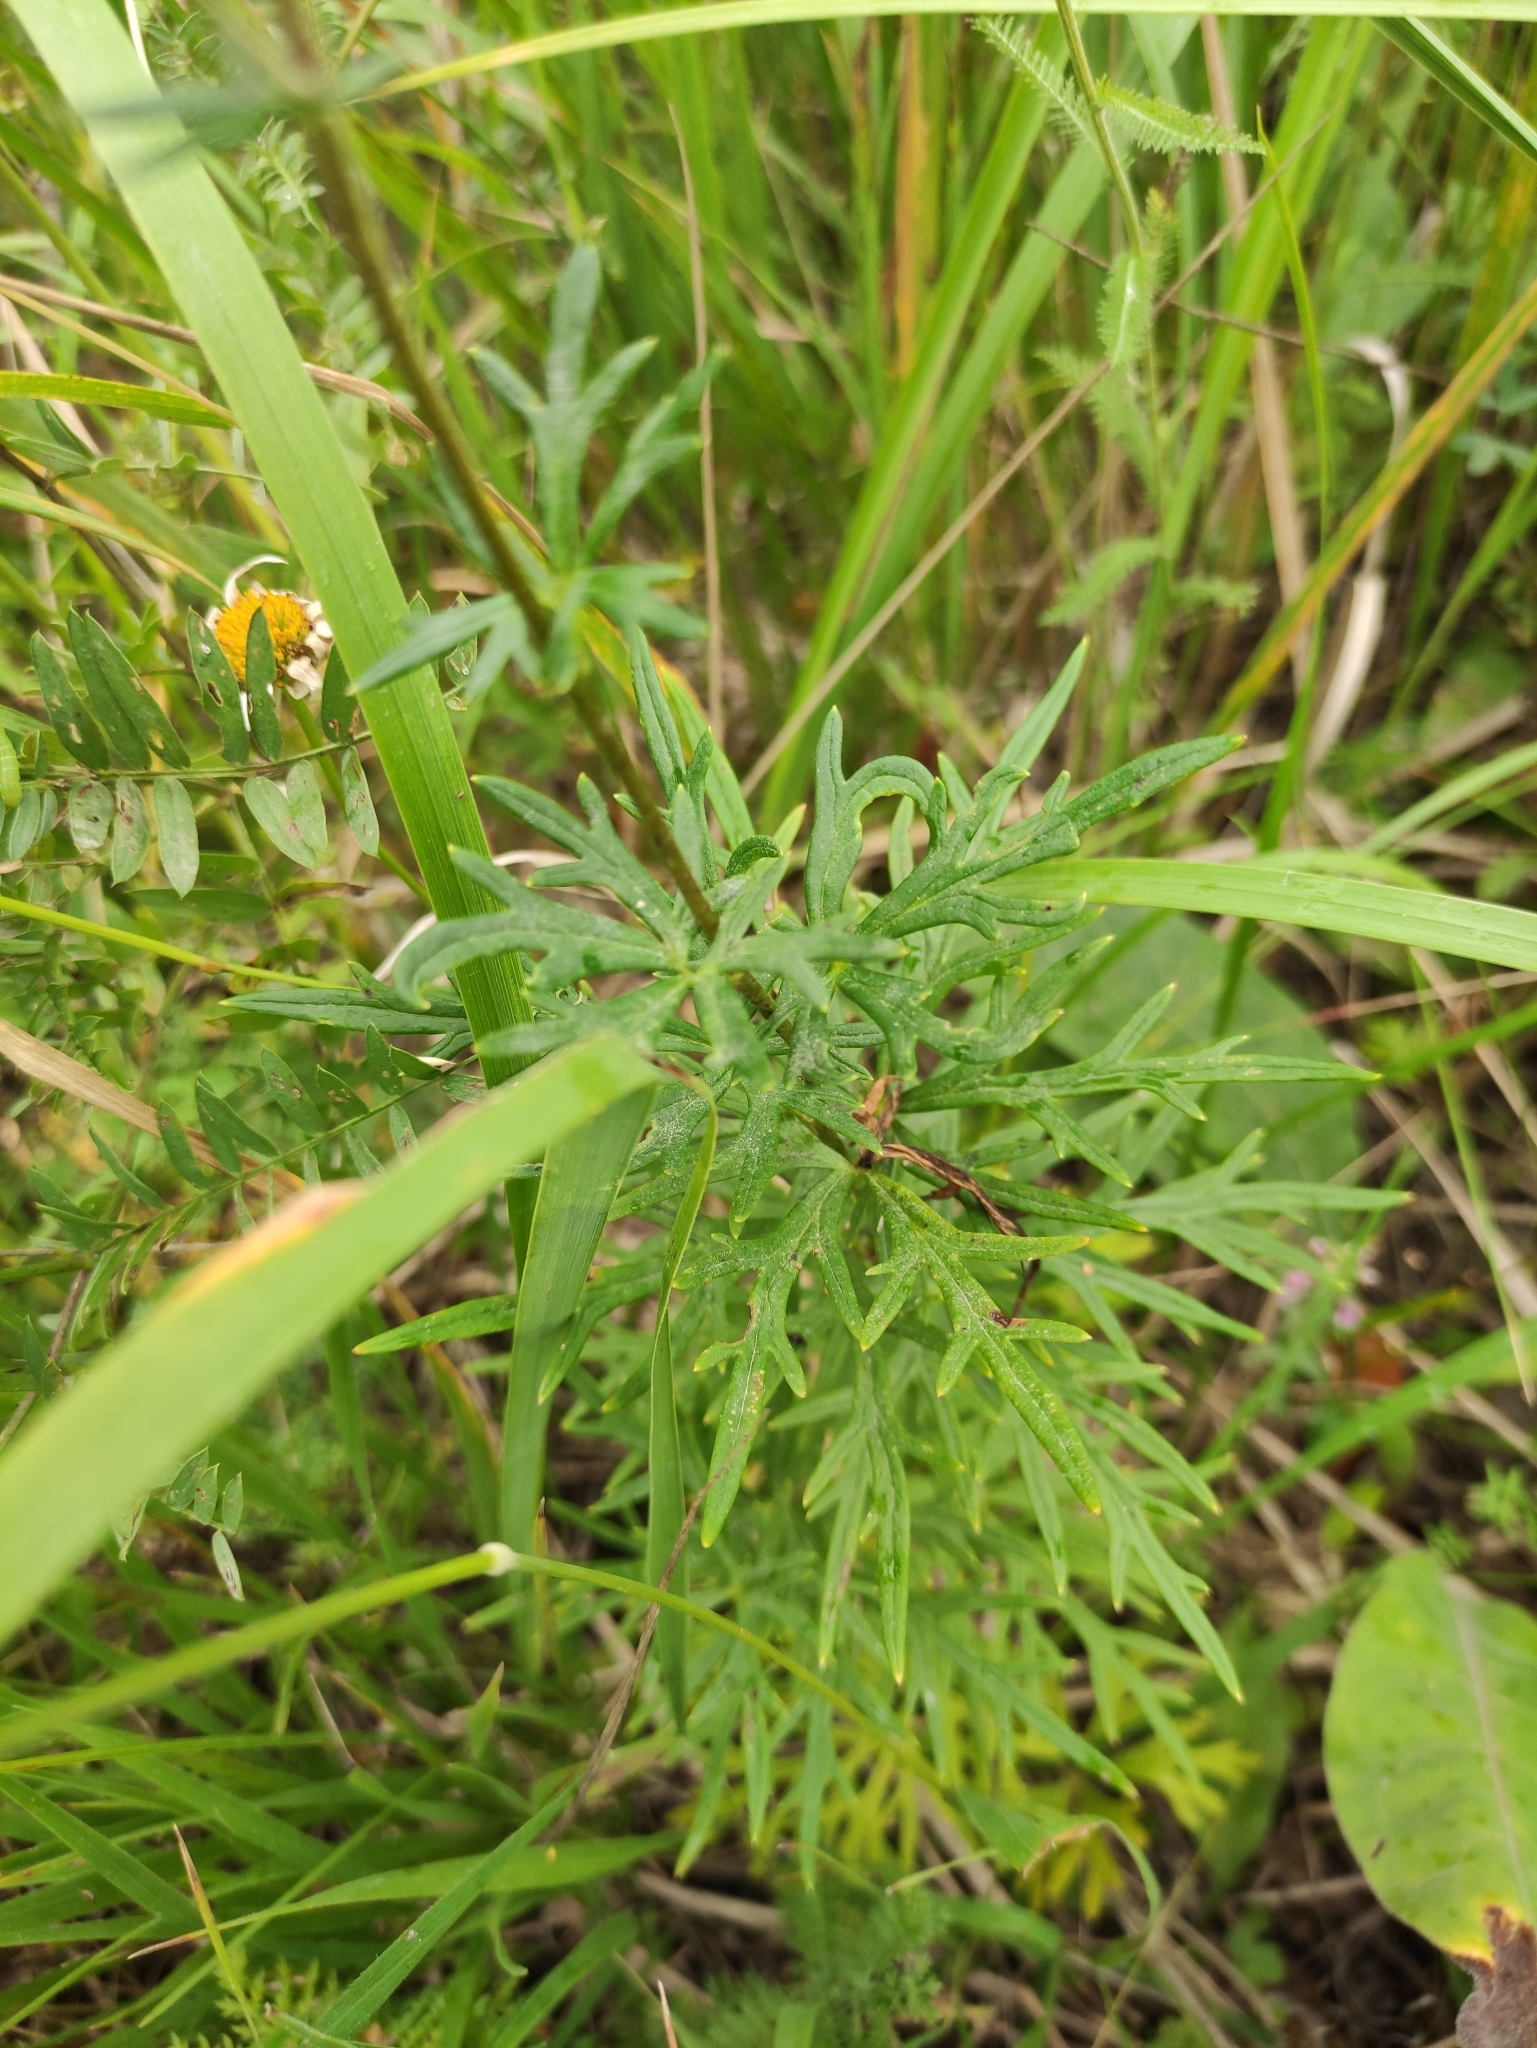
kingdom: Plantae
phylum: Tracheophyta
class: Magnoliopsida
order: Ranunculales
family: Ranunculaceae
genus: Aconitum
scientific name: Aconitum baicalense
